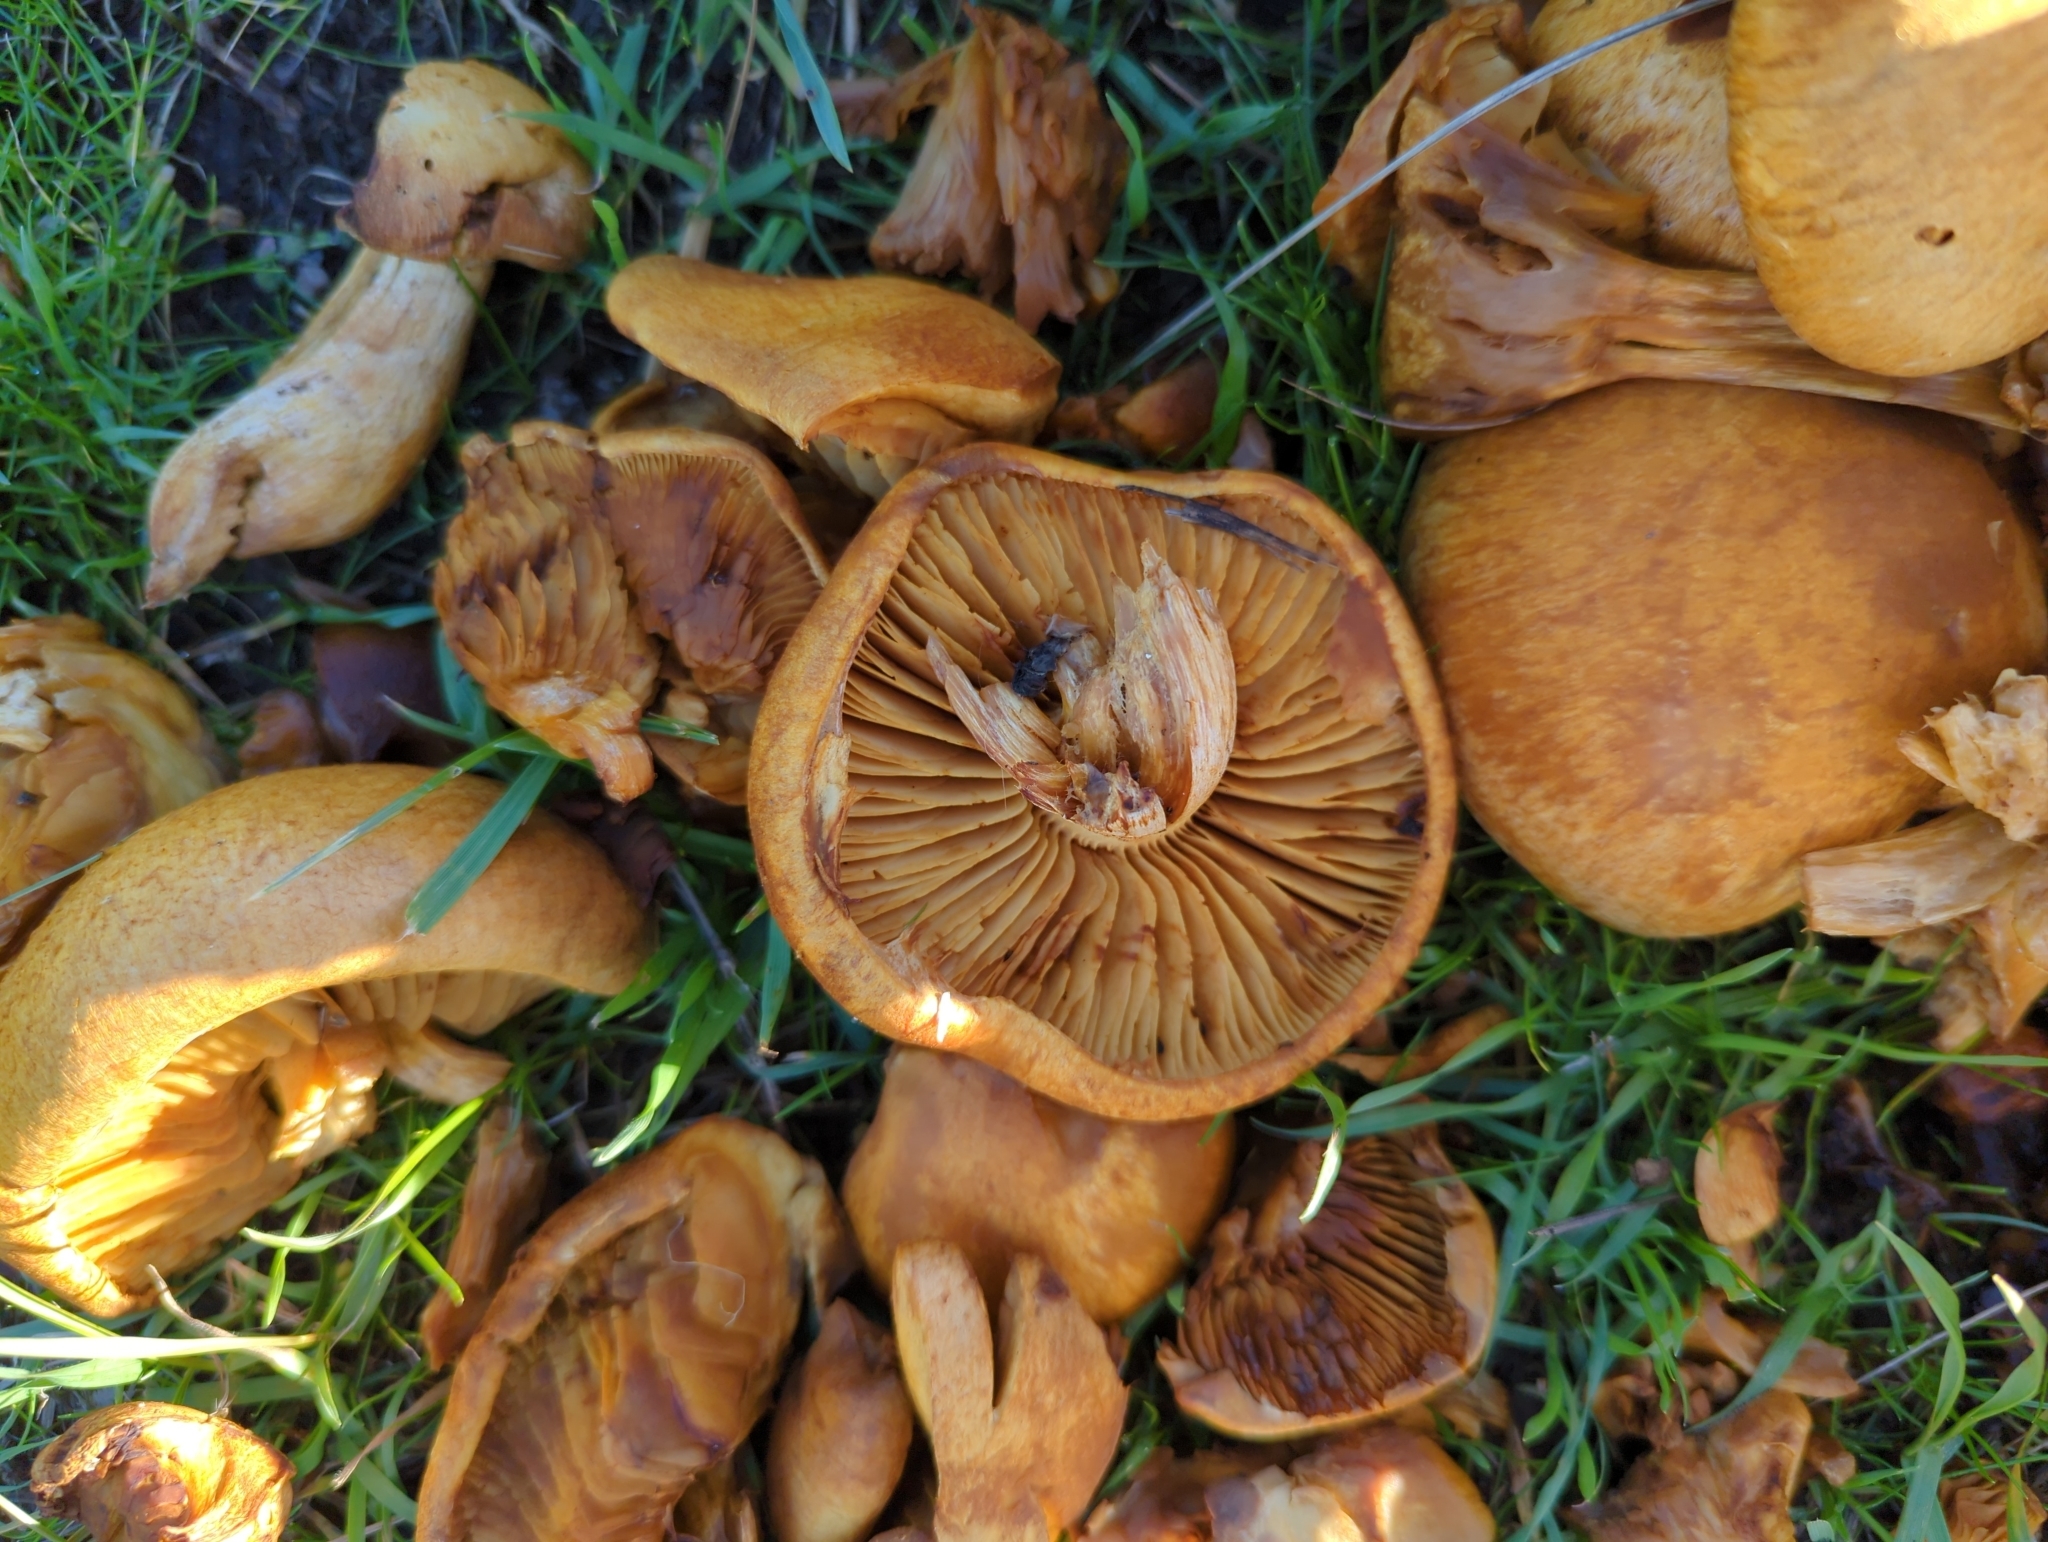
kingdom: Fungi
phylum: Basidiomycota
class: Agaricomycetes
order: Agaricales
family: Hymenogastraceae
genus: Gymnopilus
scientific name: Gymnopilus ventricosus
